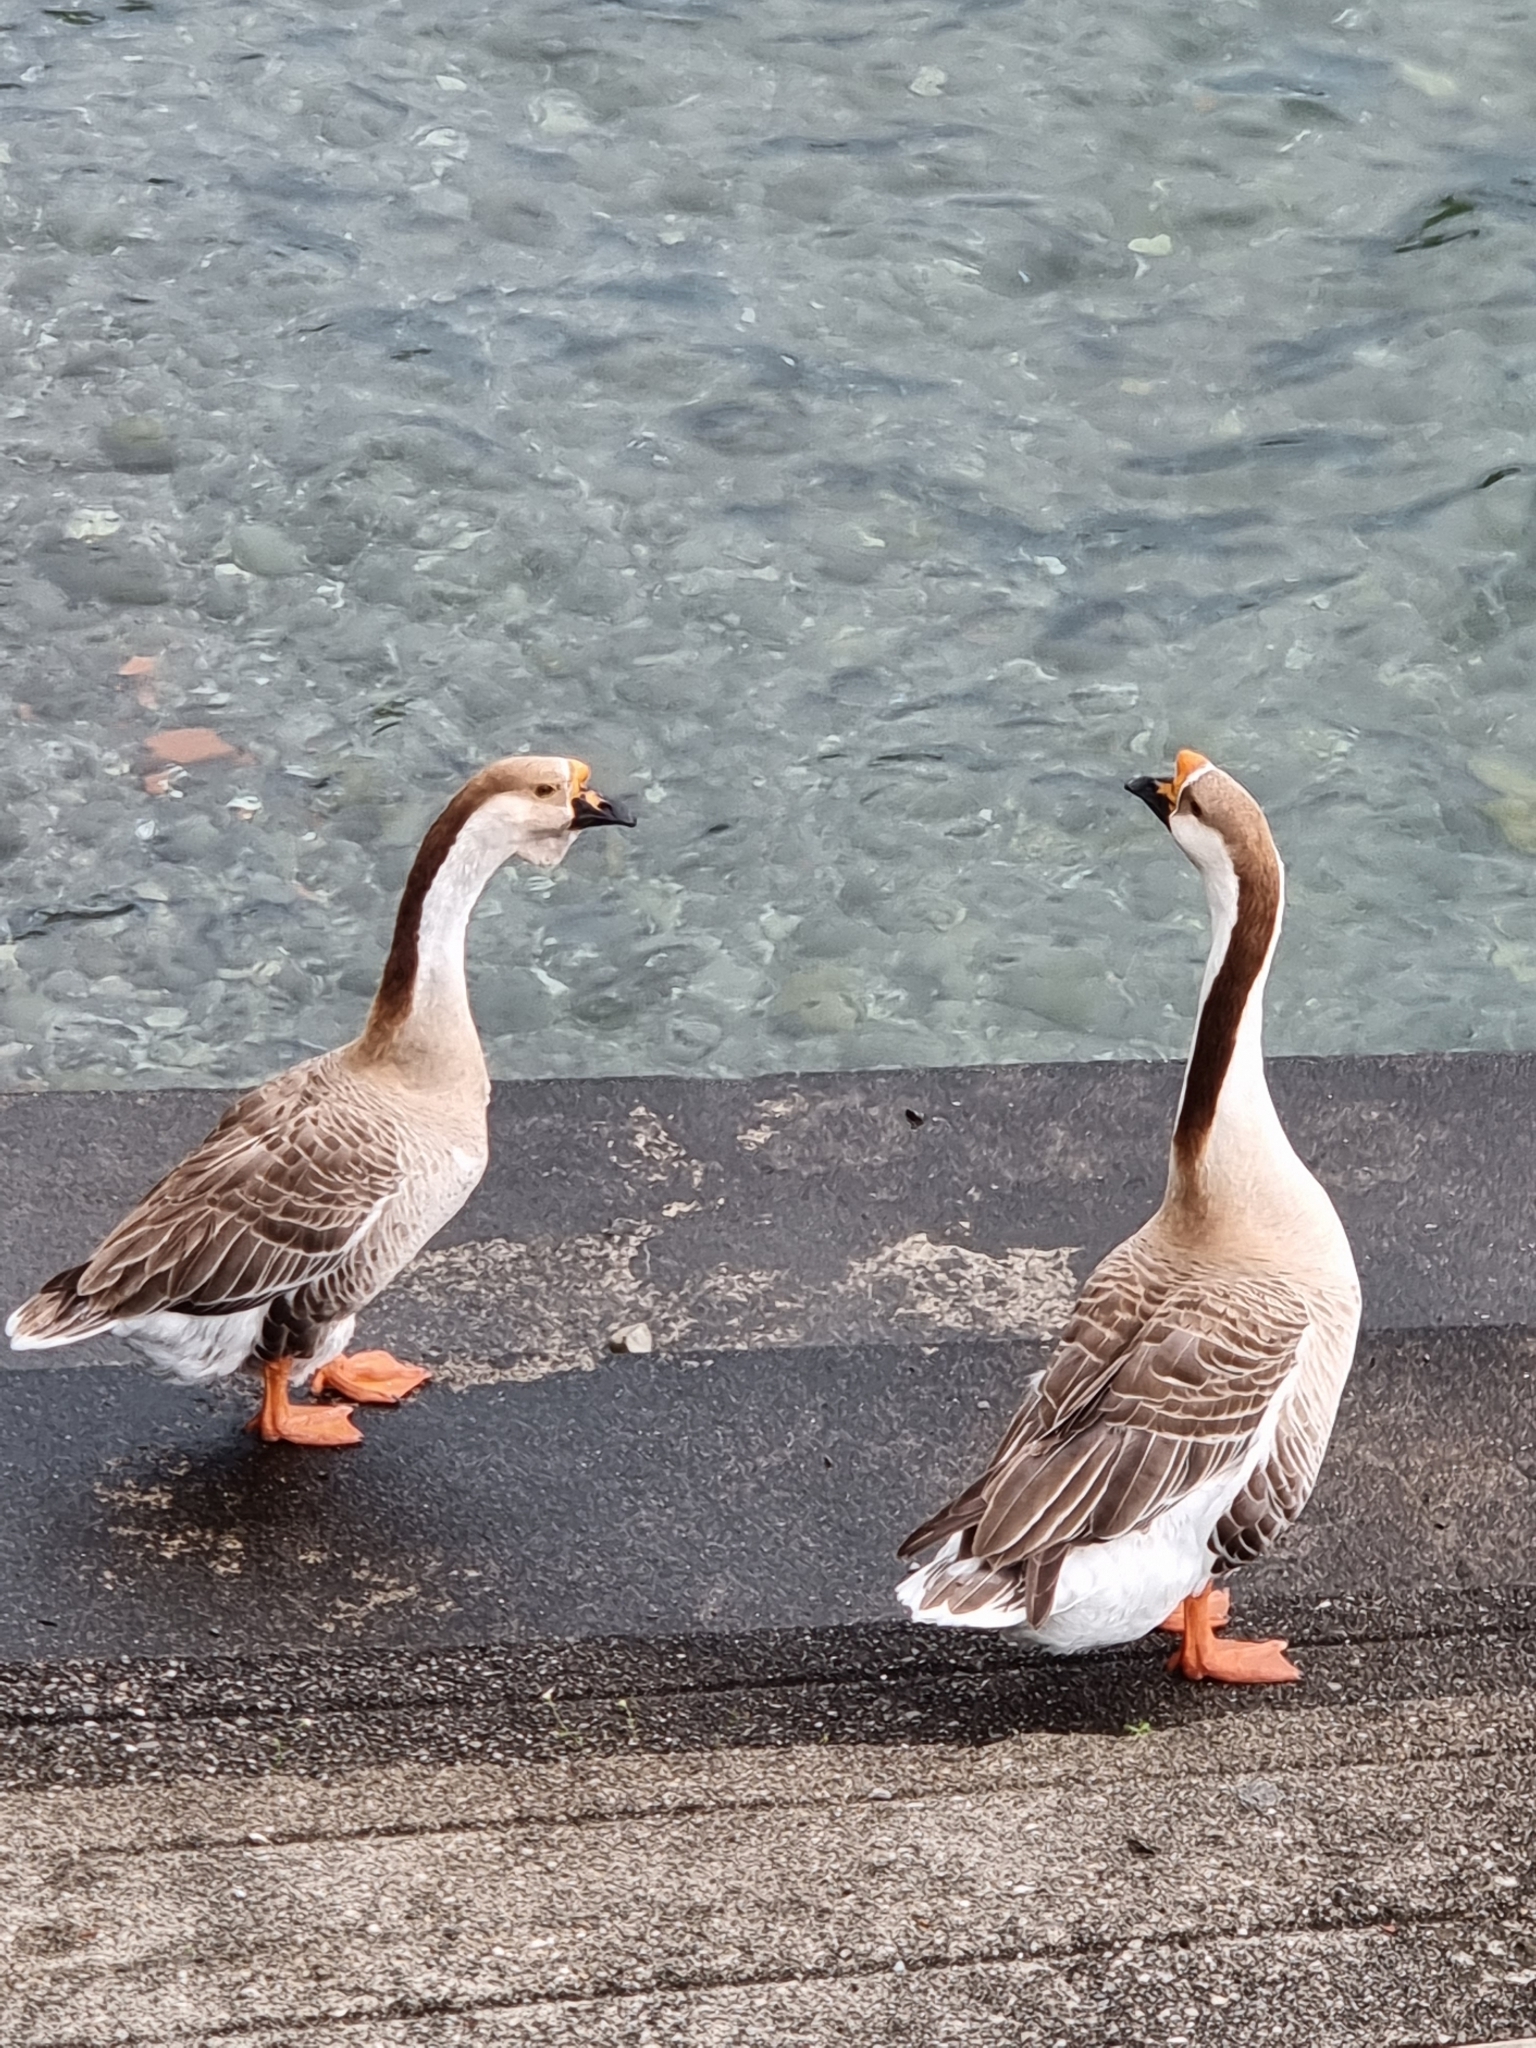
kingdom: Animalia
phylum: Chordata
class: Aves
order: Anseriformes
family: Anatidae
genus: Anser
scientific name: Anser cygnoides
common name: Swan goose
